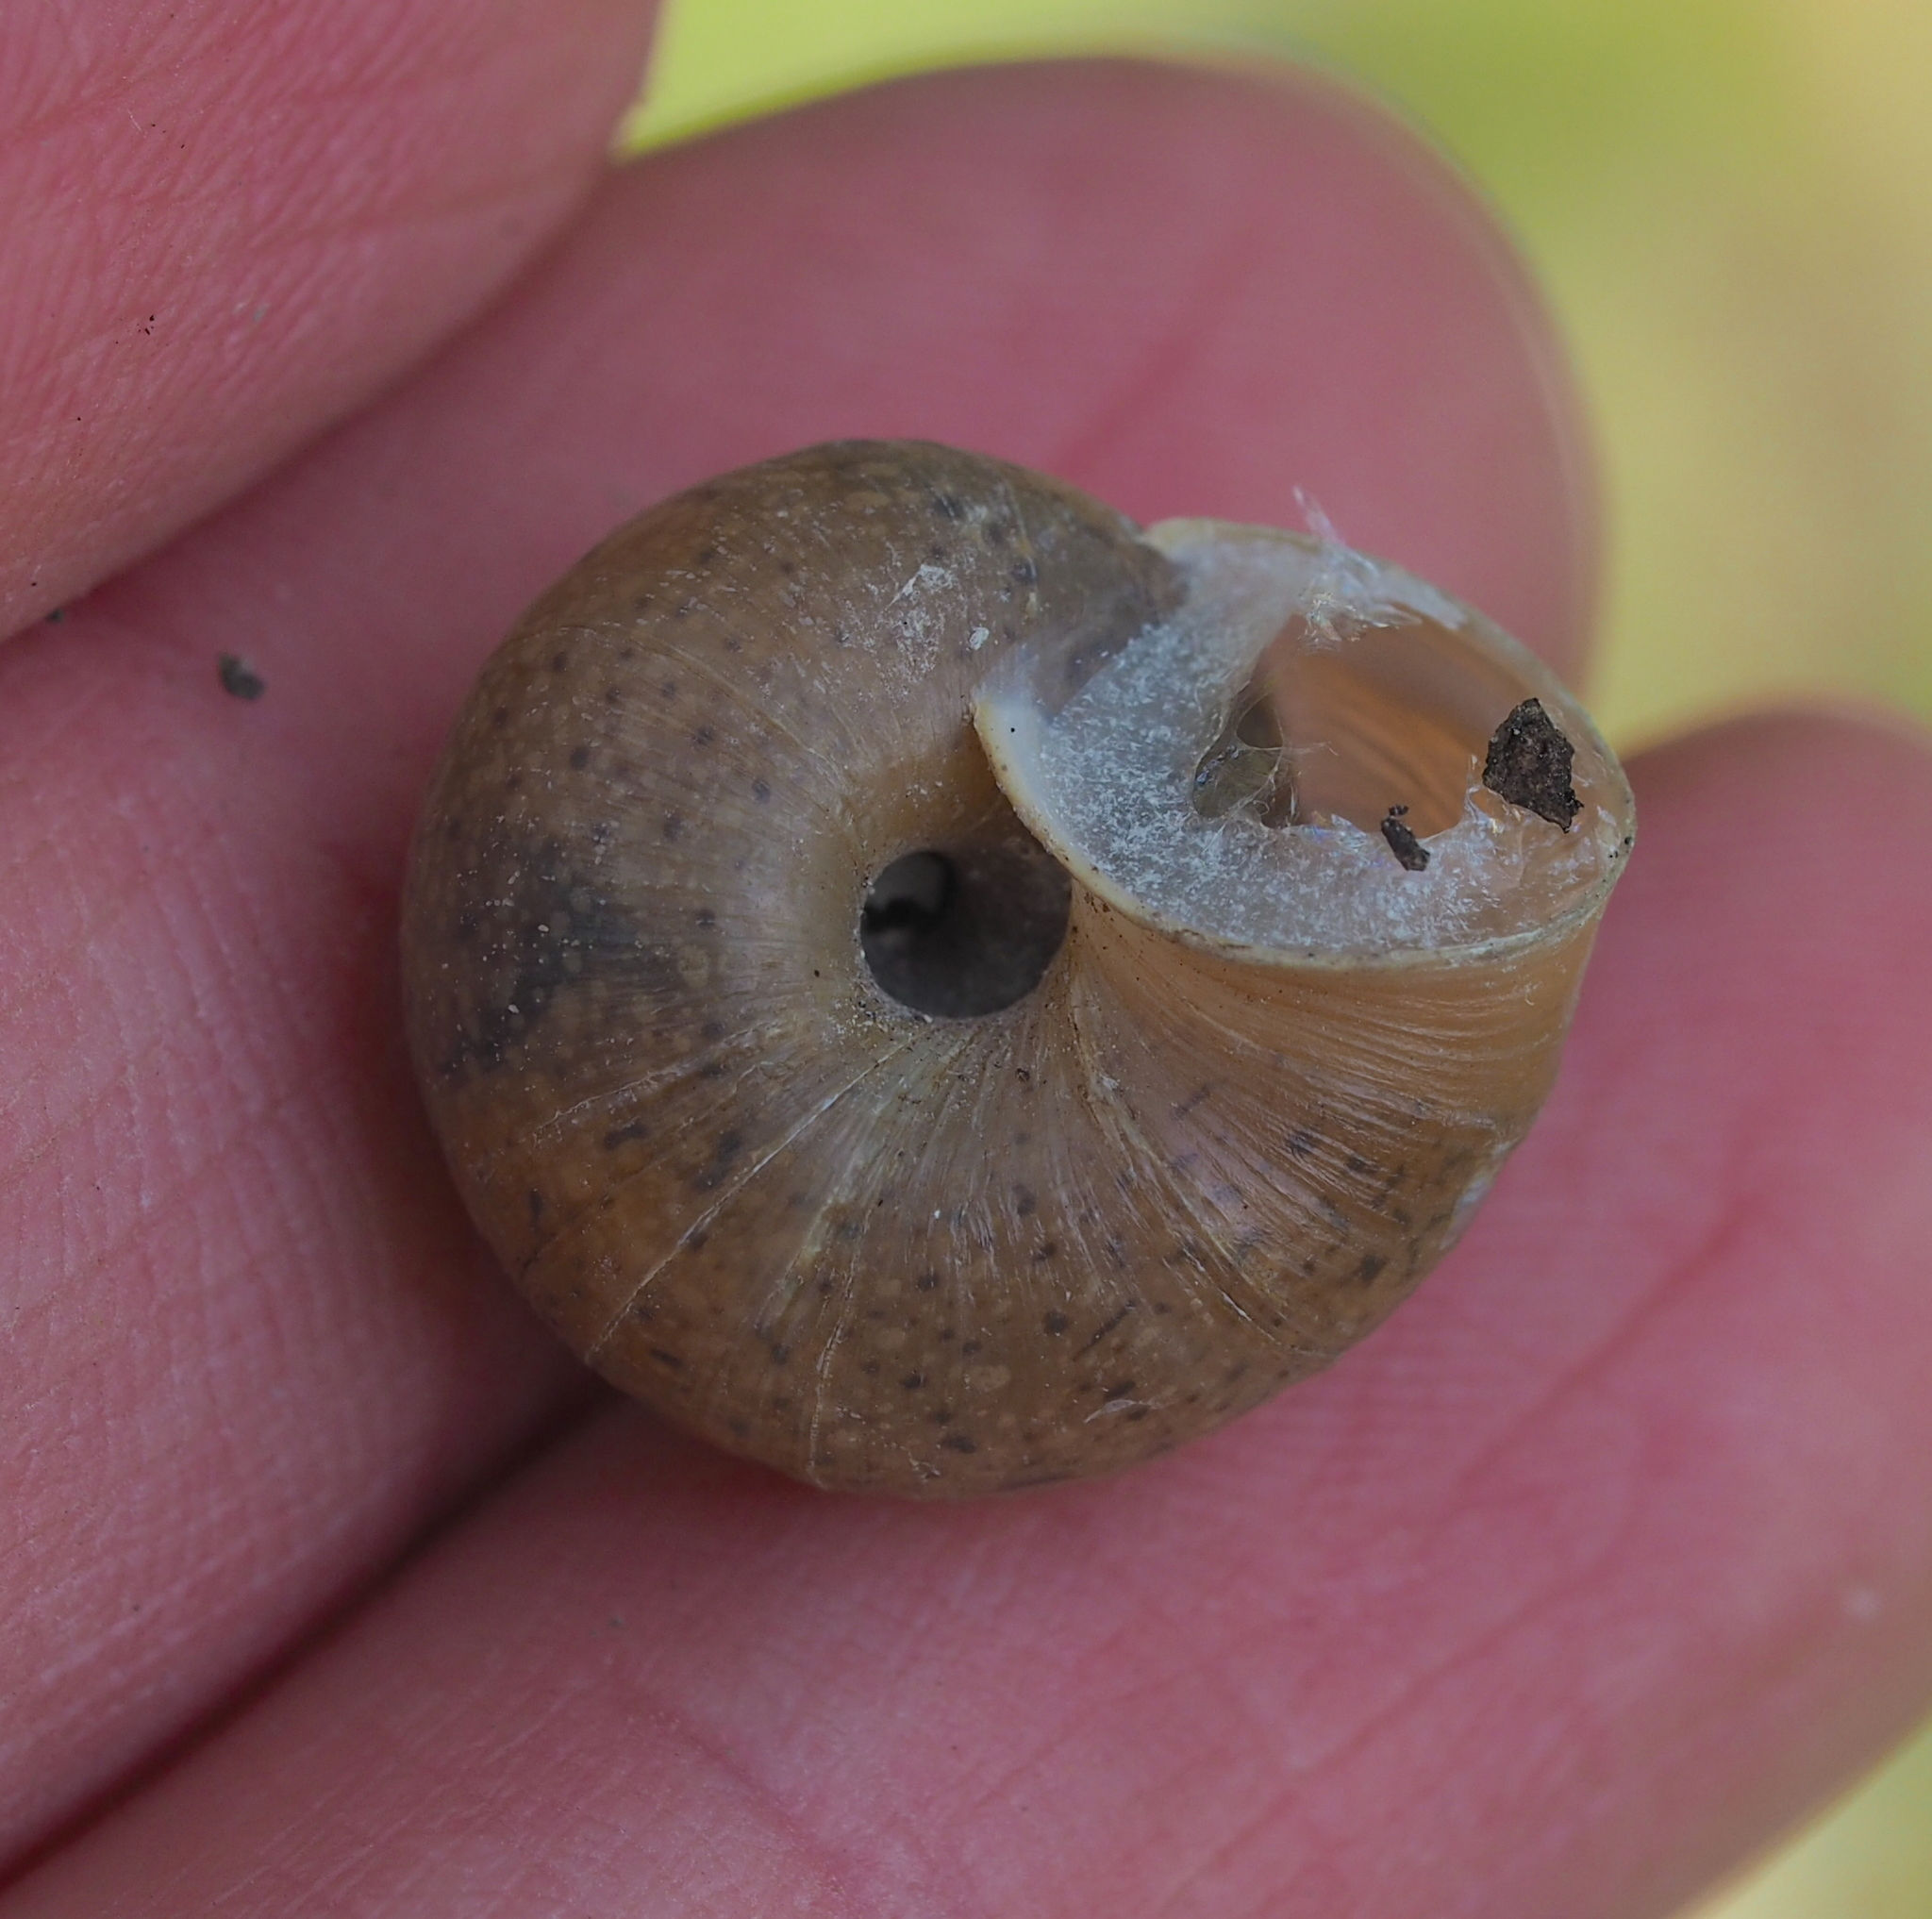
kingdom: Animalia
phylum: Mollusca
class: Gastropoda
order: Stylommatophora
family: Camaenidae
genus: Fruticicola
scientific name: Fruticicola fruticum
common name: Bush snail
